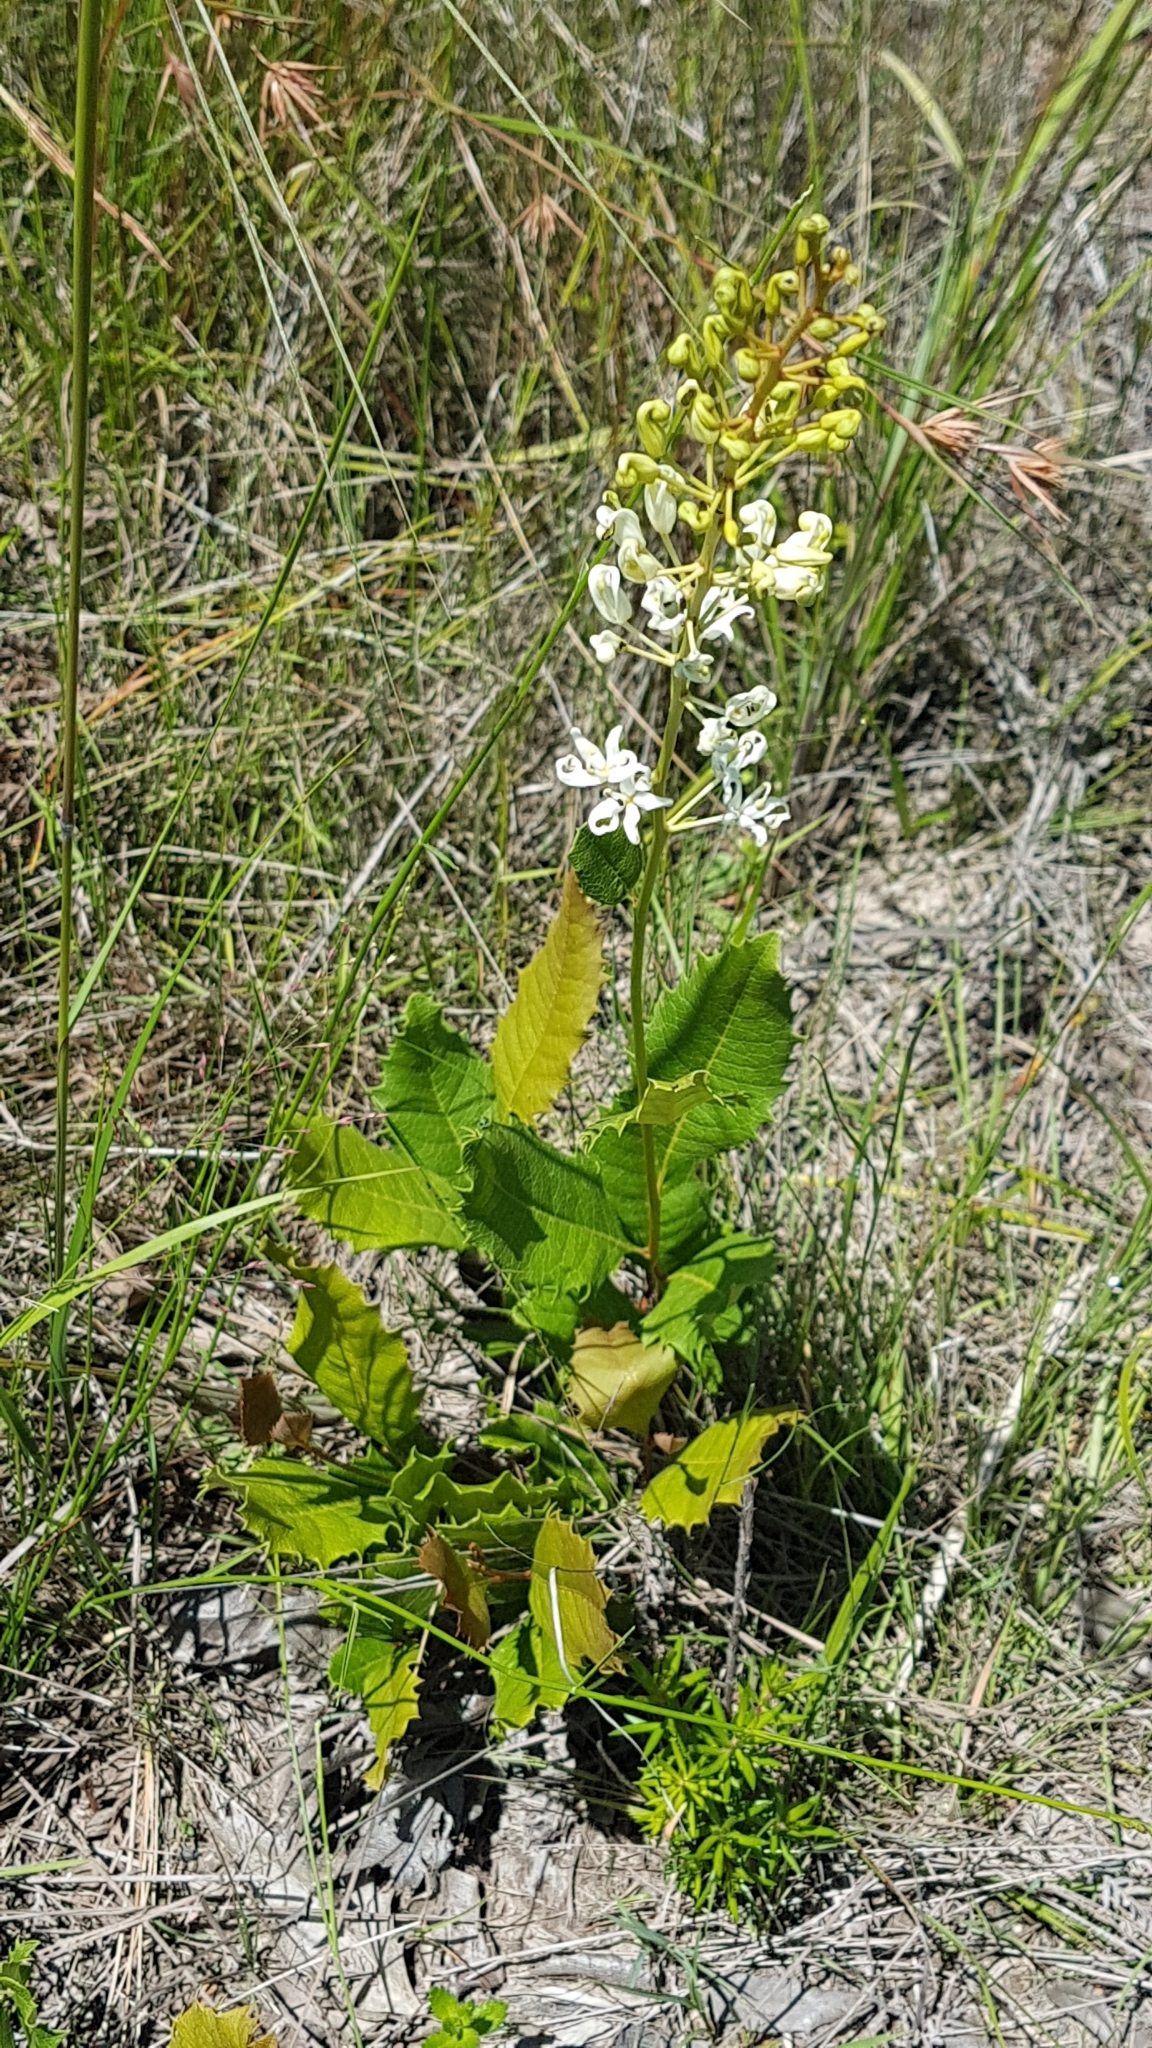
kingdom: Plantae
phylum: Tracheophyta
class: Magnoliopsida
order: Proteales
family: Proteaceae
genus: Lomatia
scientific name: Lomatia ilicifolia
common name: Native-holly
